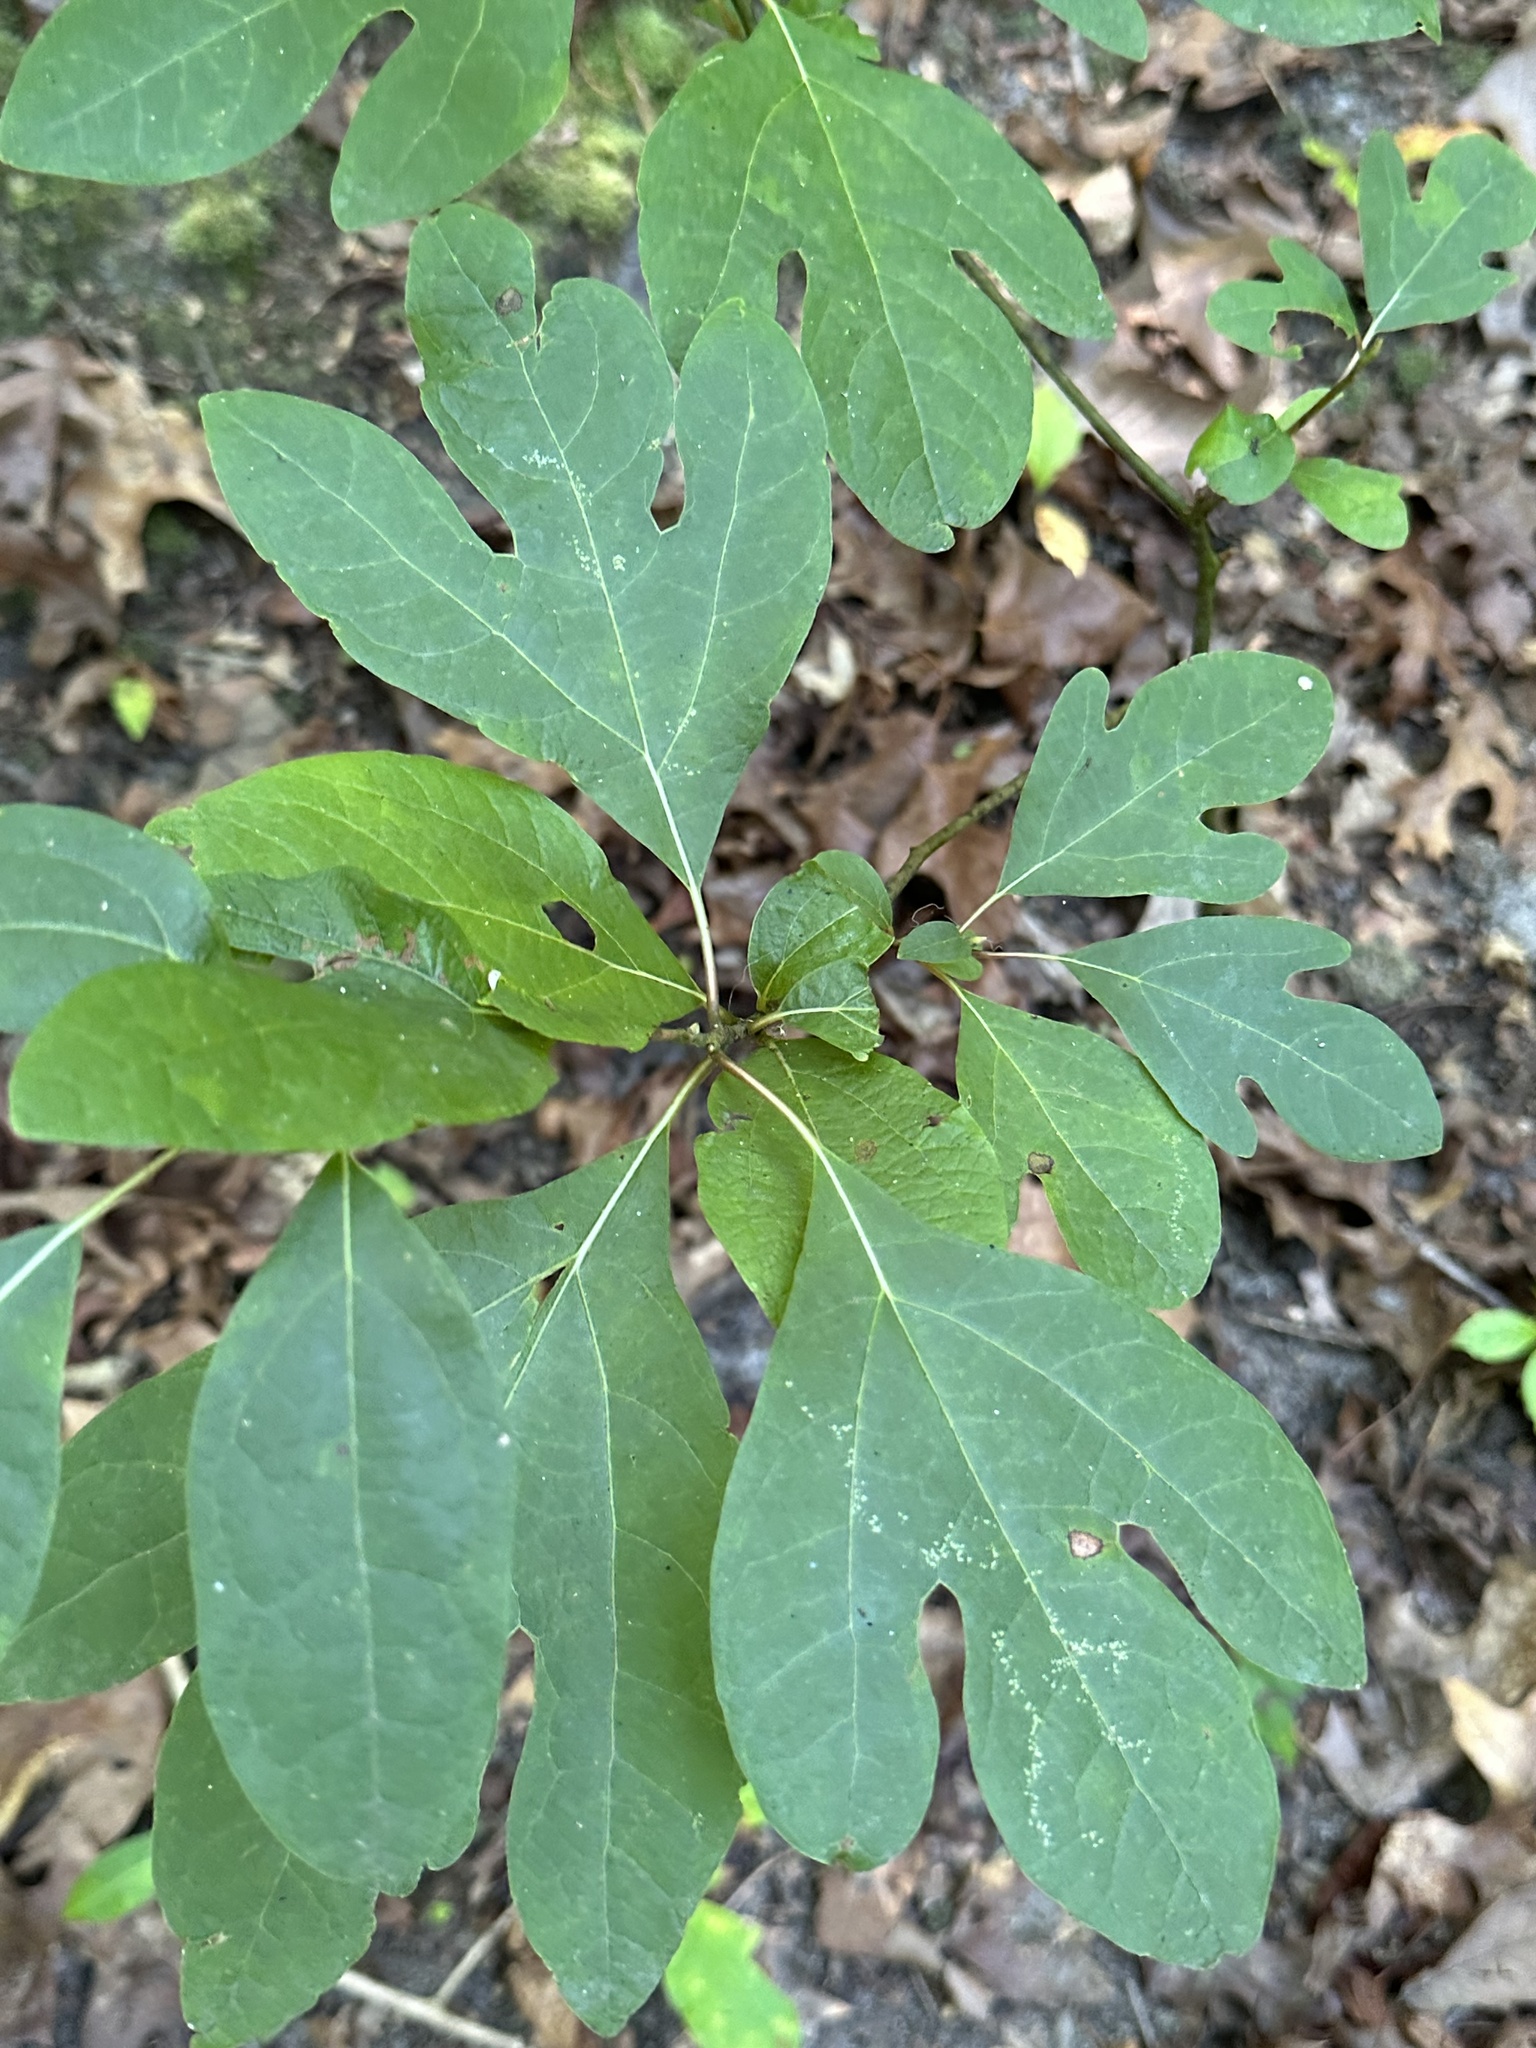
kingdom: Plantae
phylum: Tracheophyta
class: Magnoliopsida
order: Laurales
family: Lauraceae
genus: Sassafras
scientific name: Sassafras albidum
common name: Sassafras
